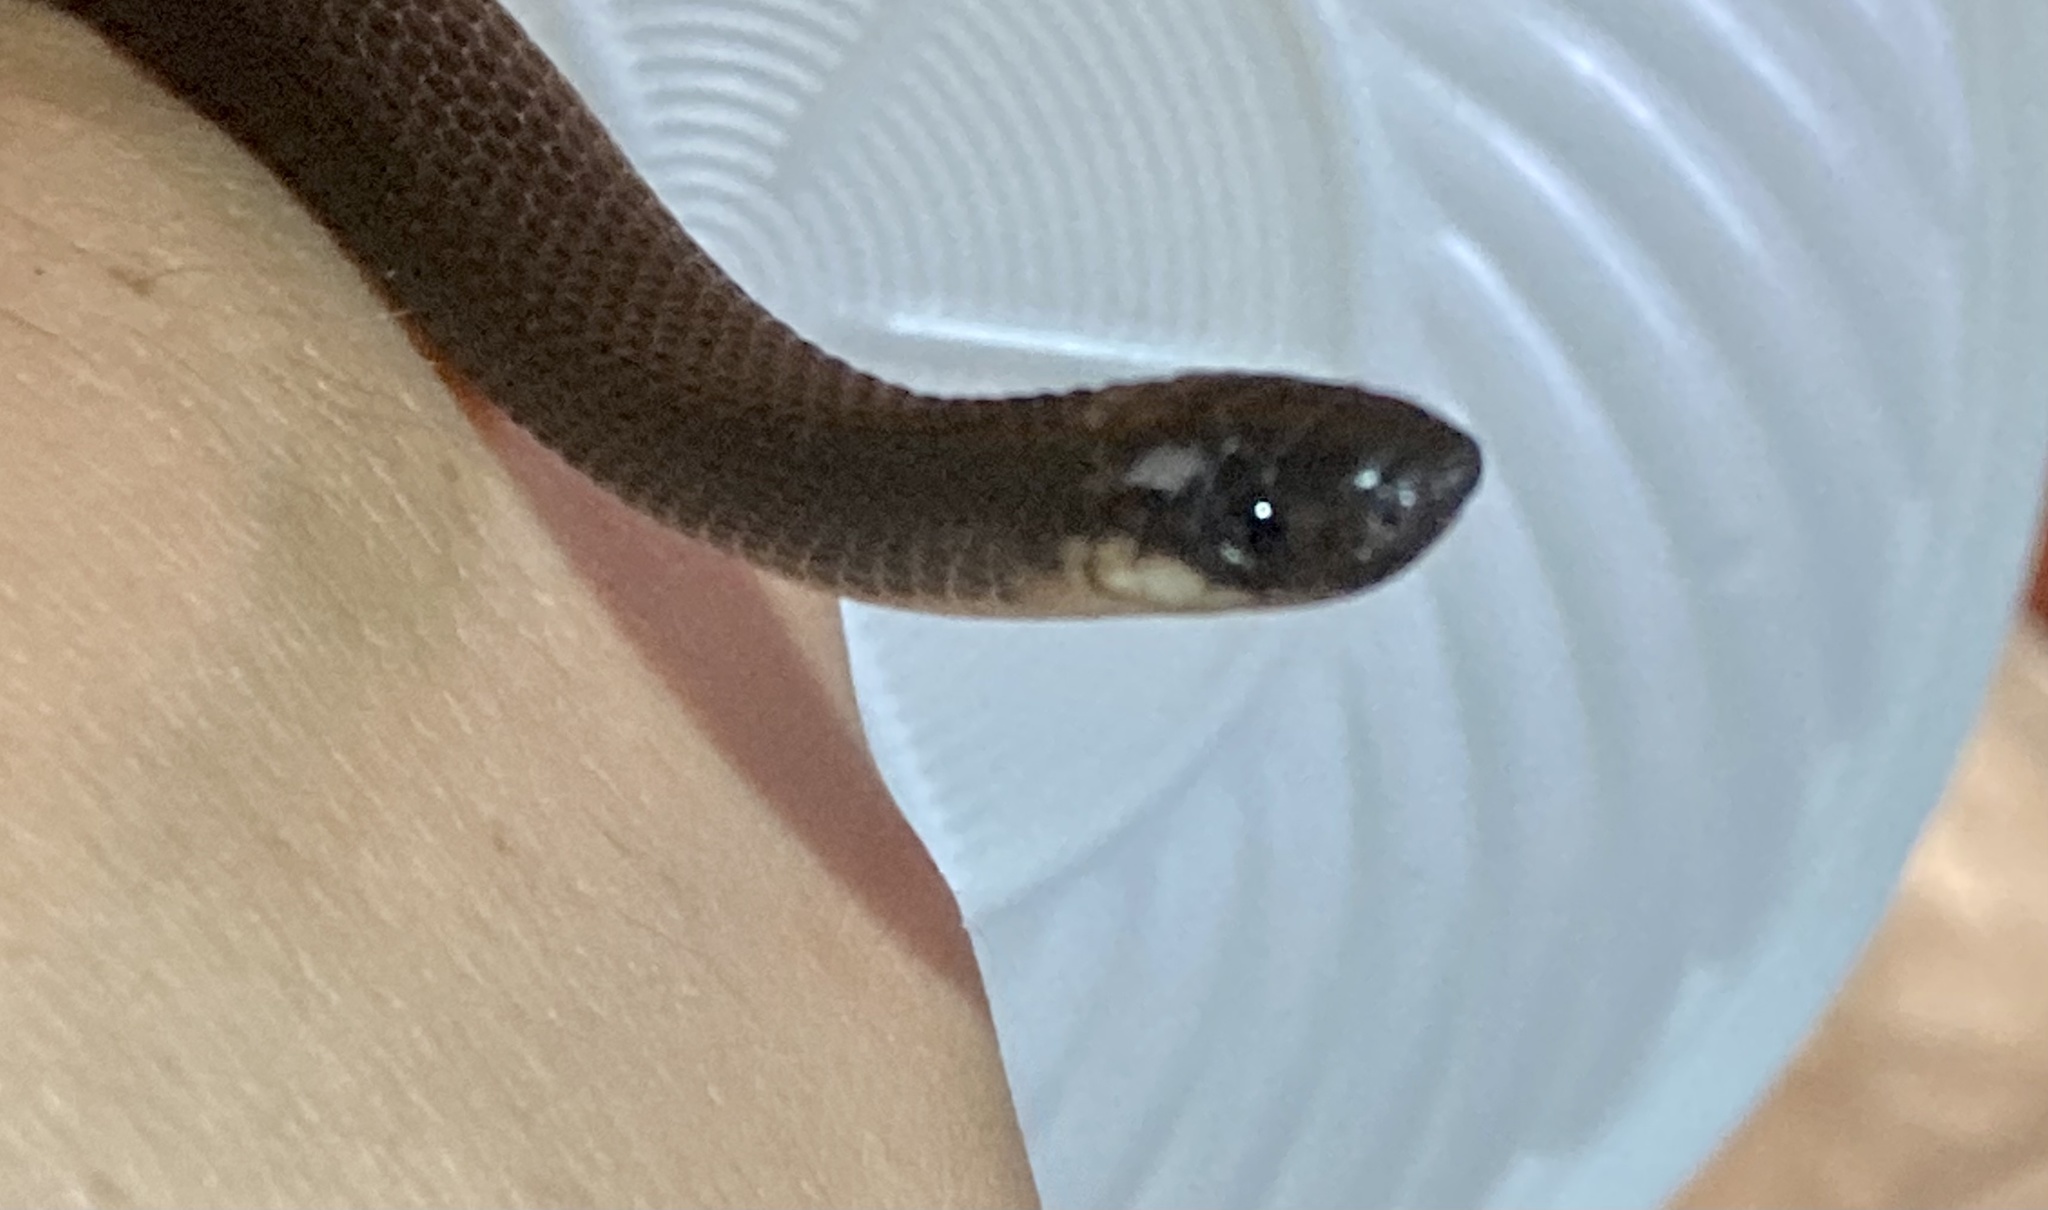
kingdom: Animalia
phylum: Chordata
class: Squamata
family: Colubridae
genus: Ninia
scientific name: Ninia atrata
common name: Hallowell's coffee snake
